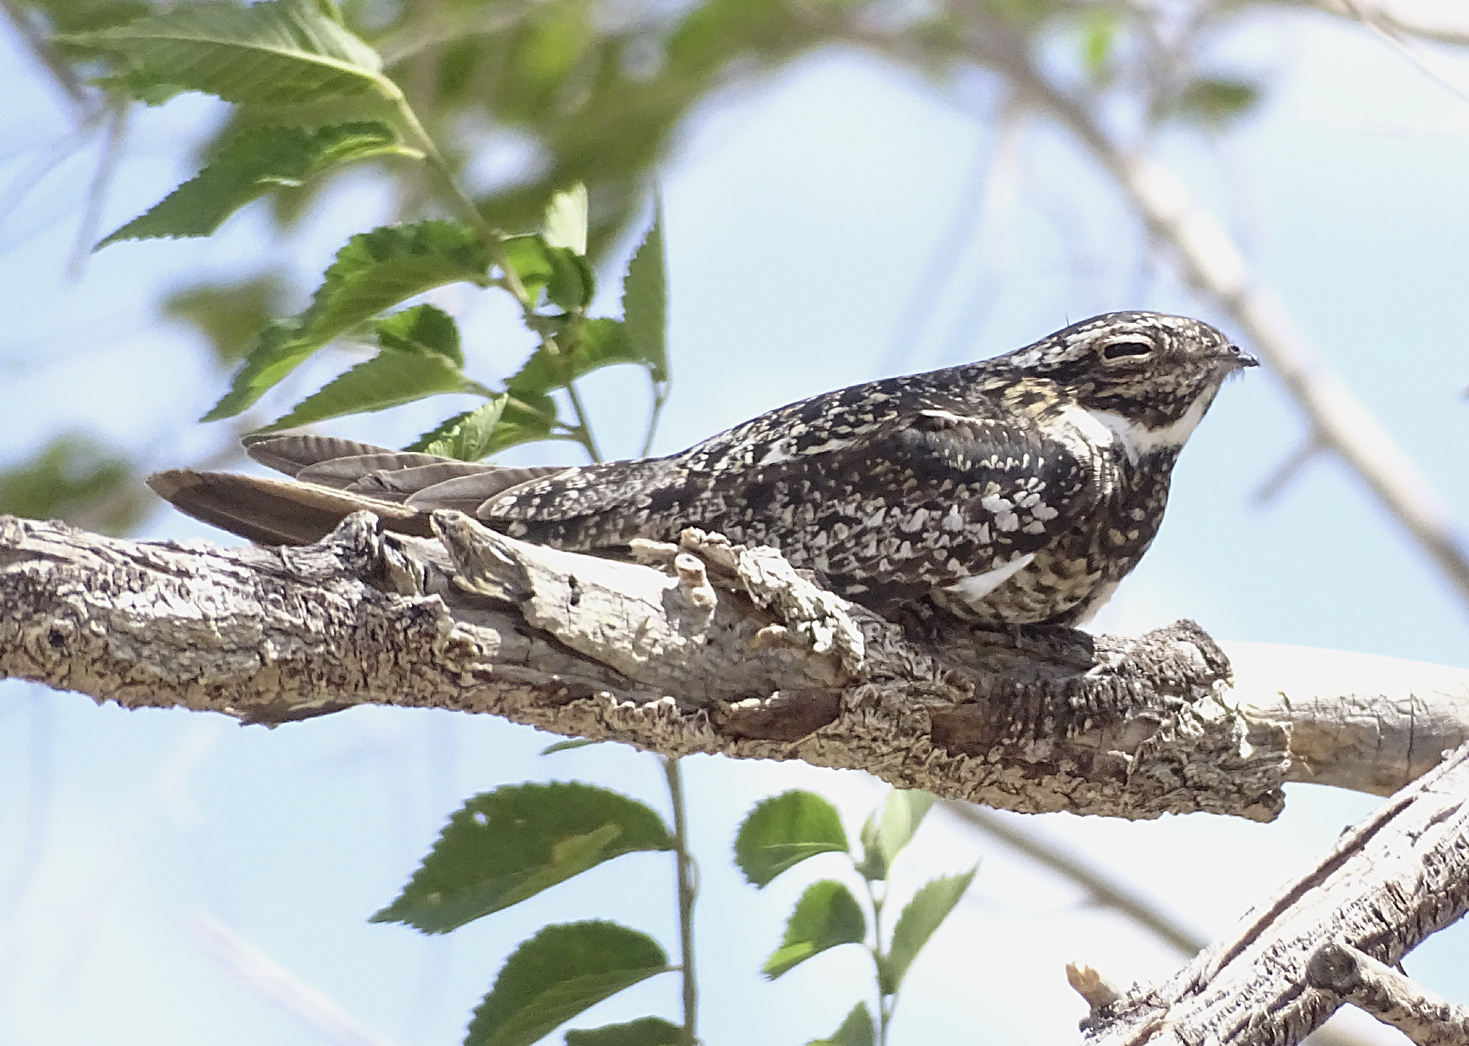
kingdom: Animalia
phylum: Chordata
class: Aves
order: Caprimulgiformes
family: Caprimulgidae
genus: Chordeiles
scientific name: Chordeiles minor
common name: Common nighthawk
